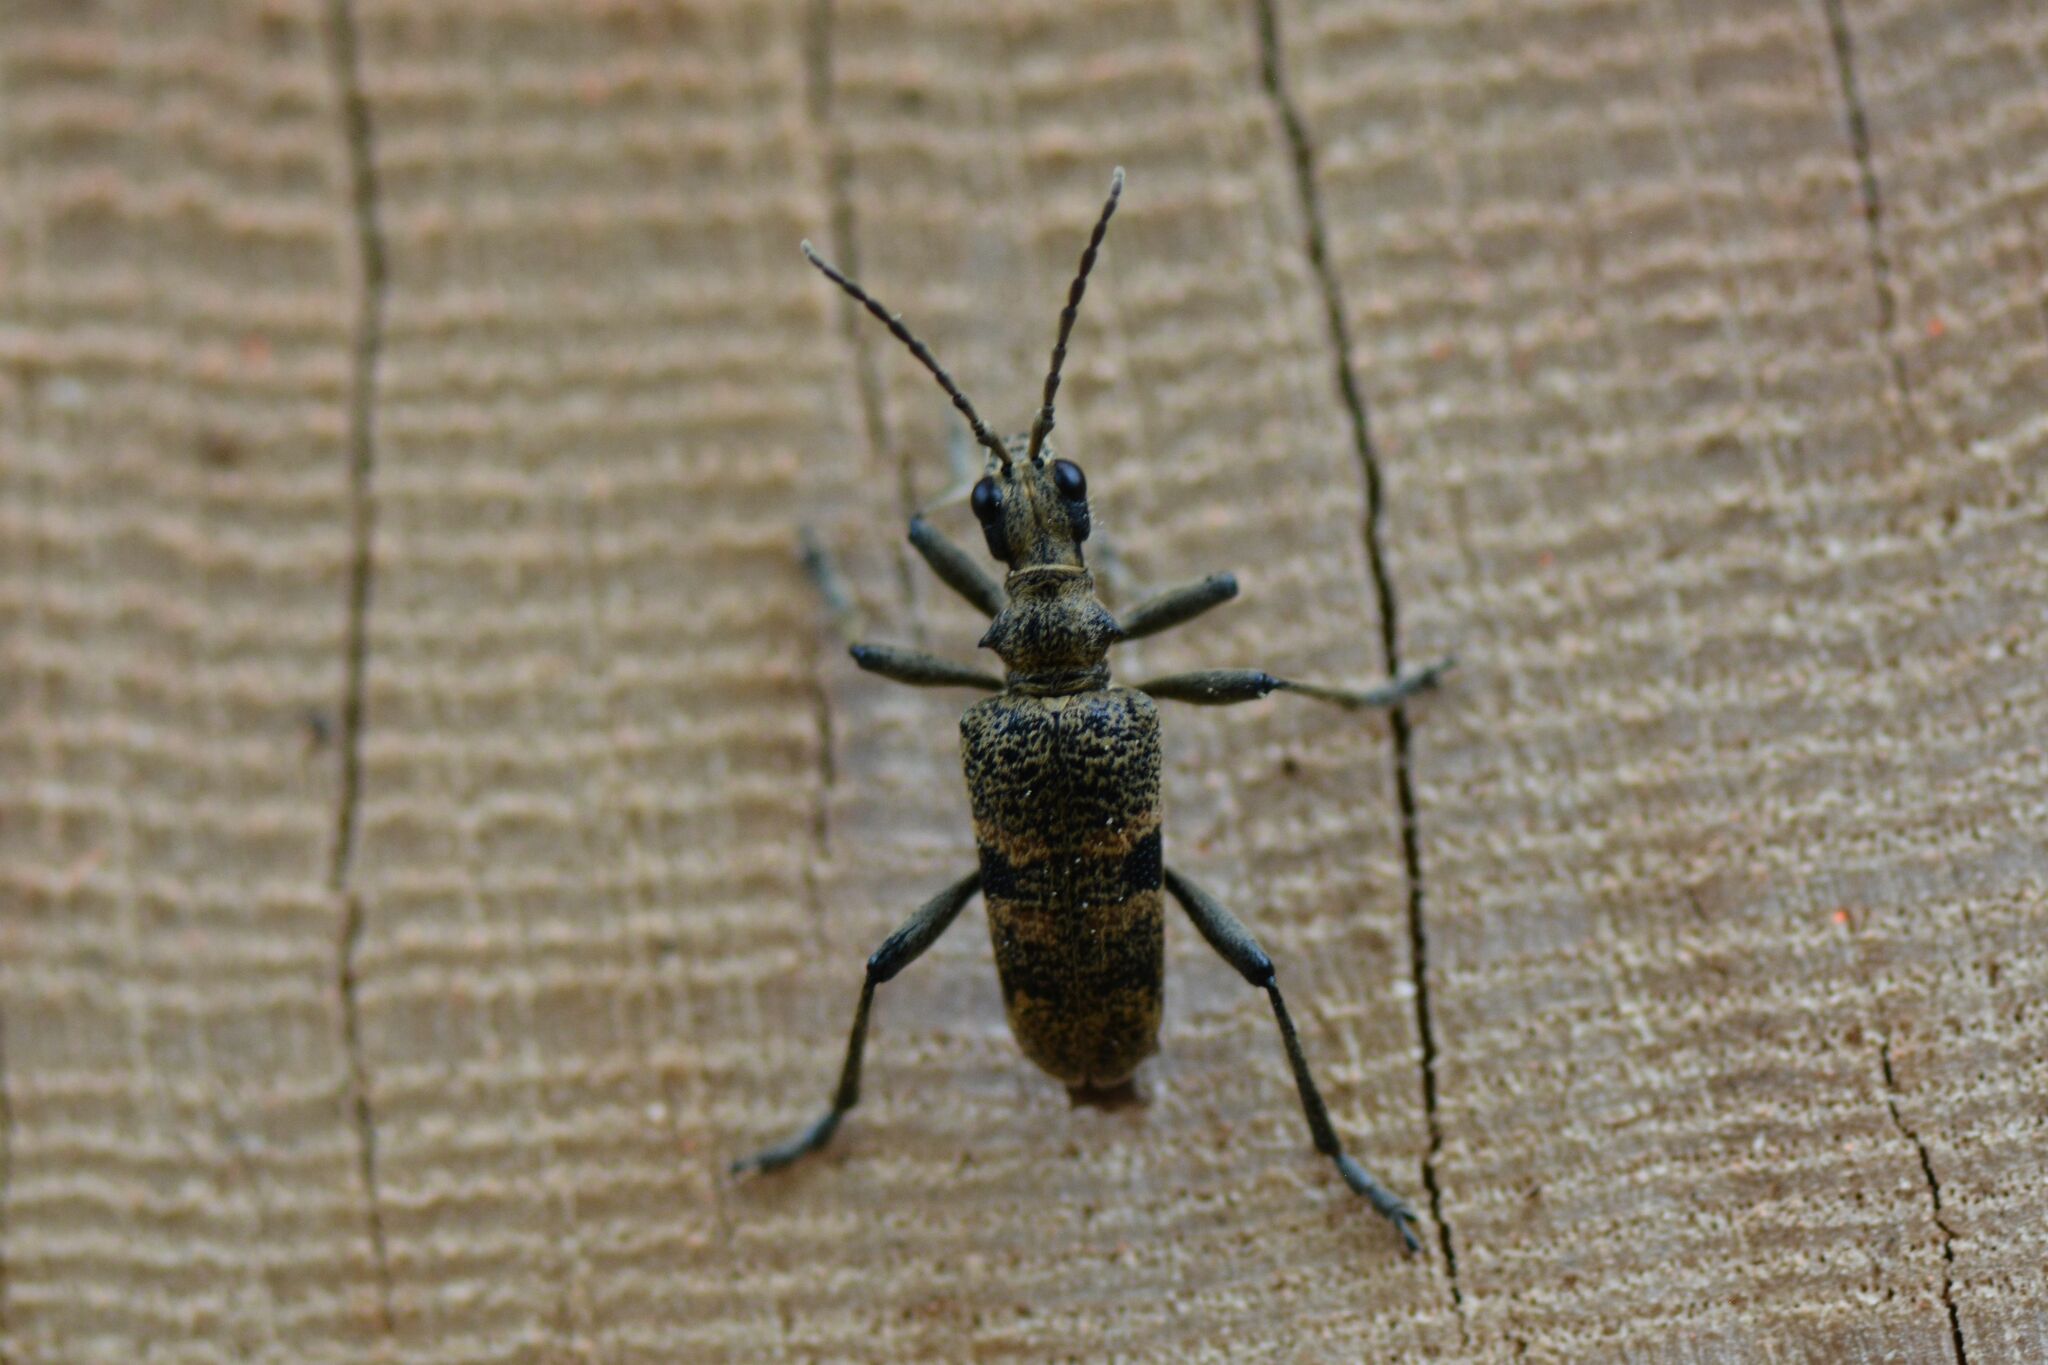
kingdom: Animalia
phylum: Arthropoda
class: Insecta
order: Coleoptera
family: Cerambycidae
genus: Rhagium
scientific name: Rhagium mordax
